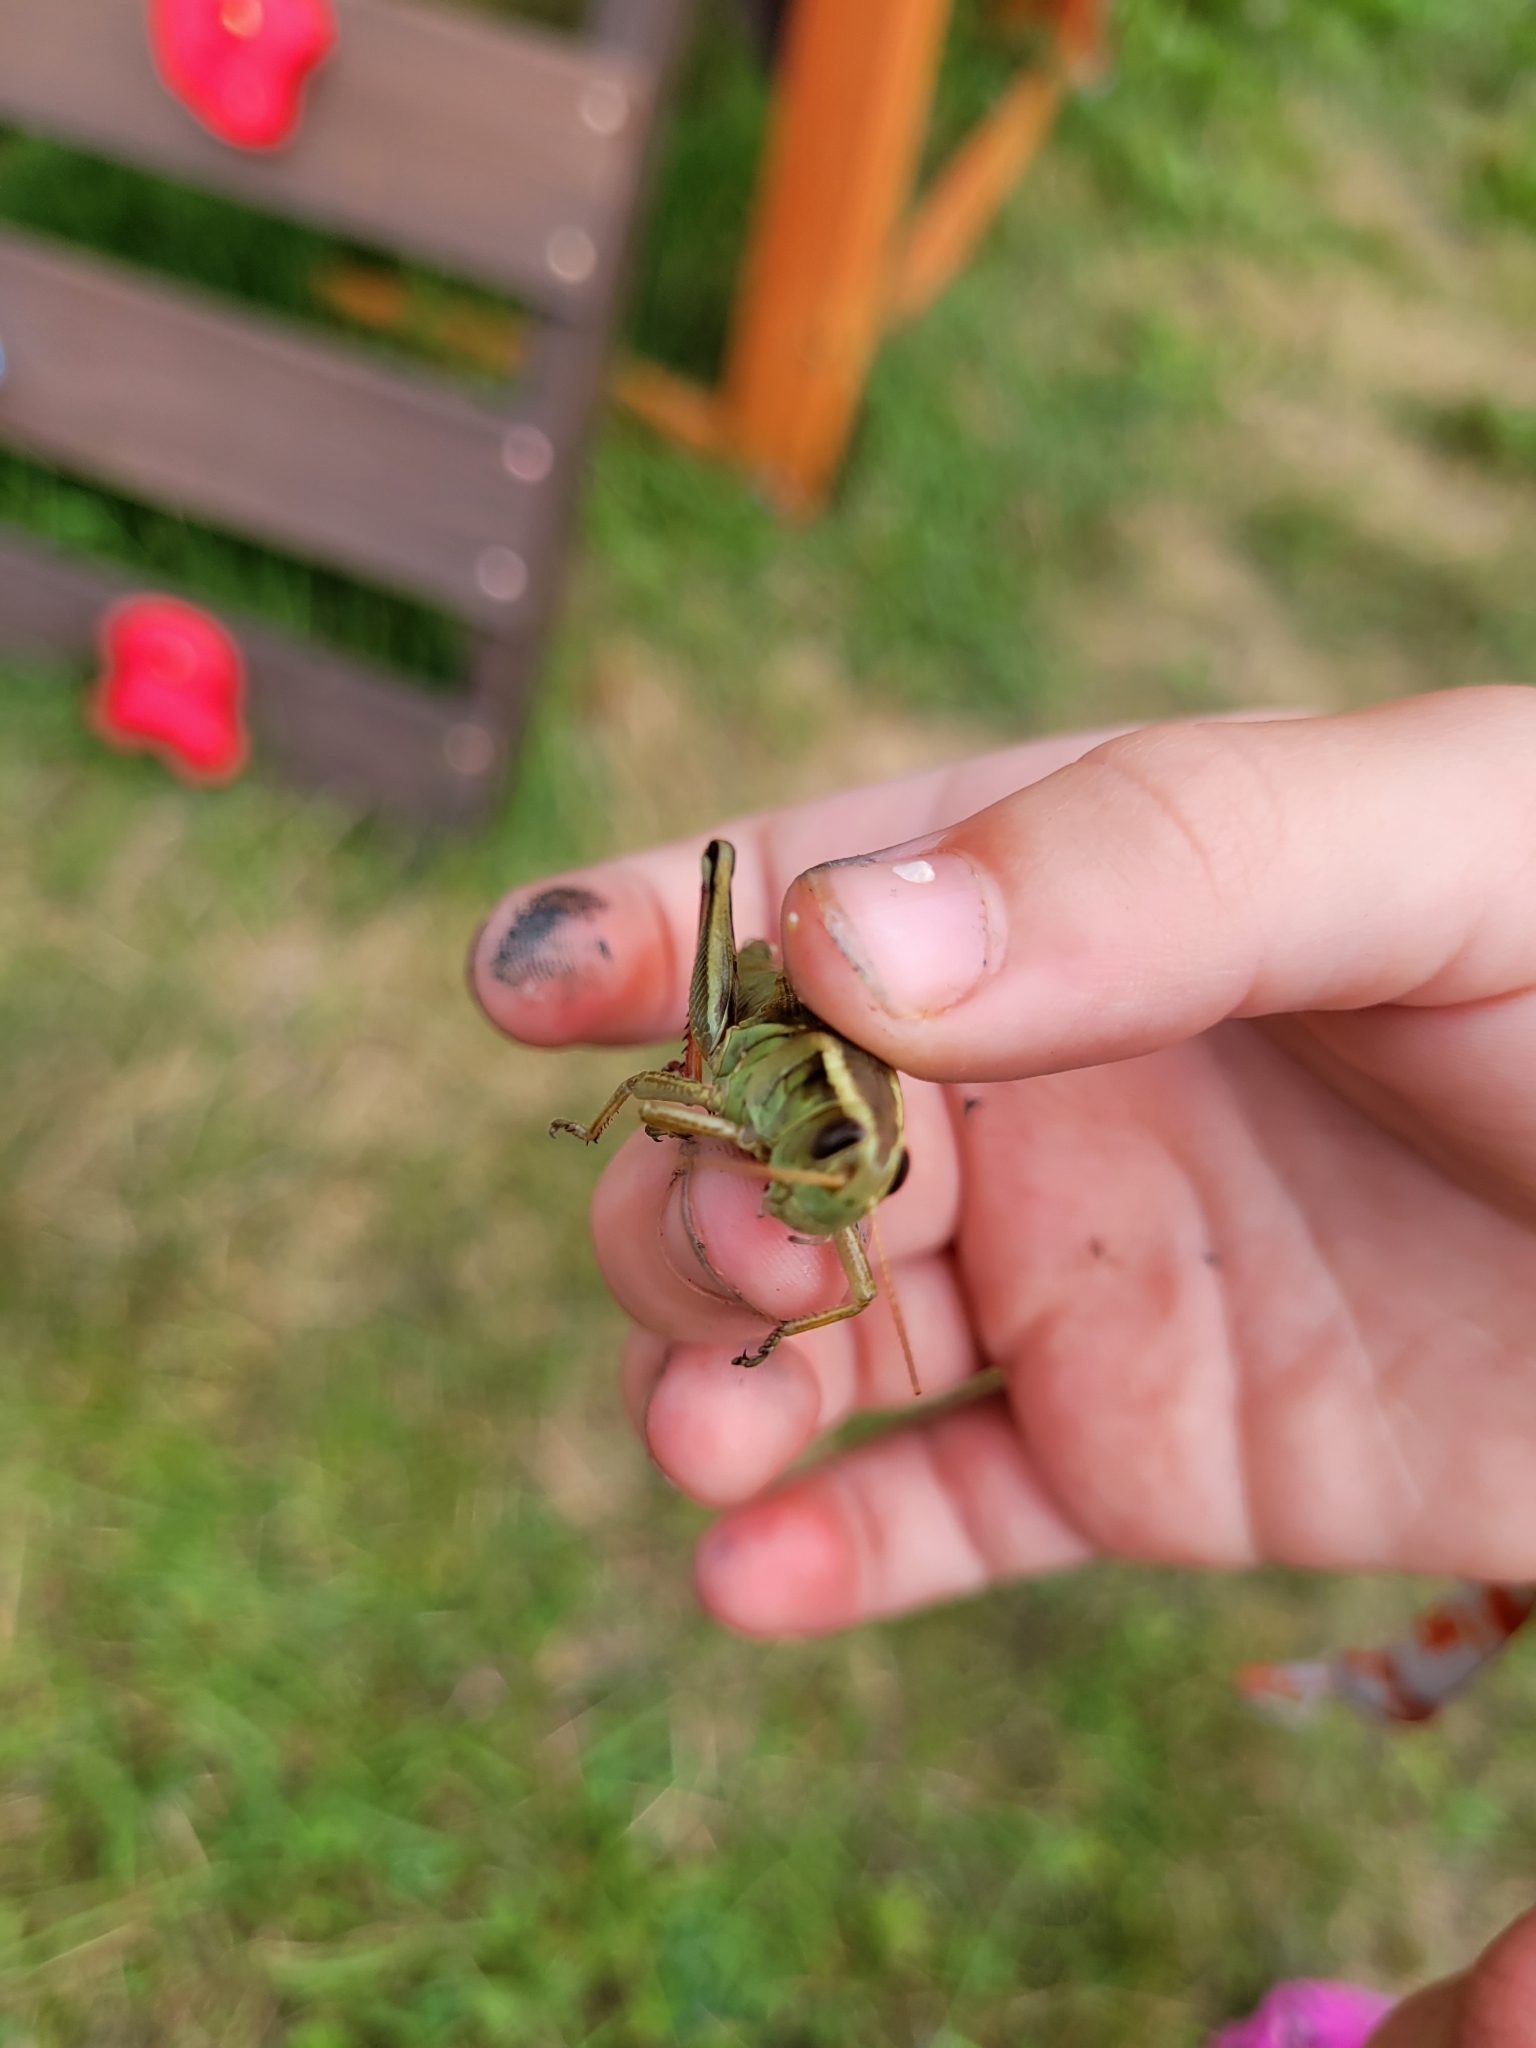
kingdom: Animalia
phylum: Arthropoda
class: Insecta
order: Orthoptera
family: Acrididae
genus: Melanoplus
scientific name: Melanoplus bivittatus
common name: Two-striped grasshopper
